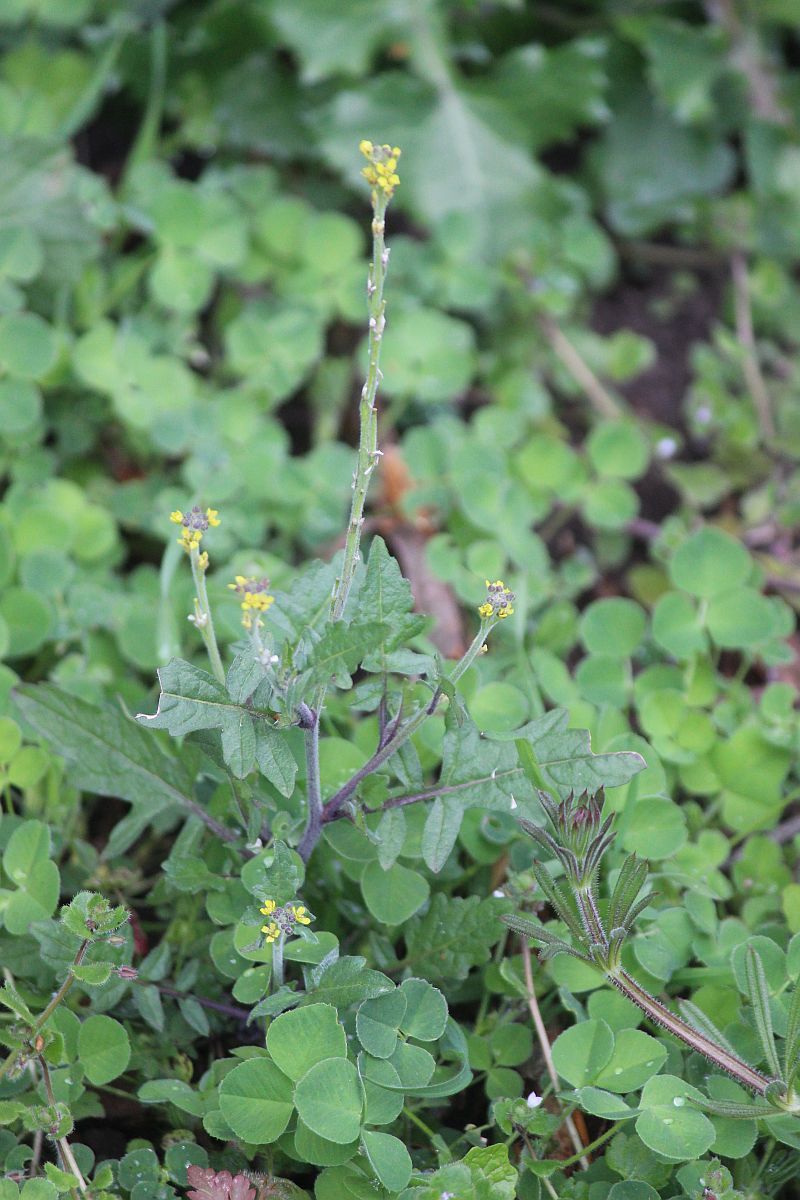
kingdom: Plantae
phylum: Tracheophyta
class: Magnoliopsida
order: Brassicales
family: Brassicaceae
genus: Sisymbrium
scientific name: Sisymbrium officinale
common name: Hedge mustard
